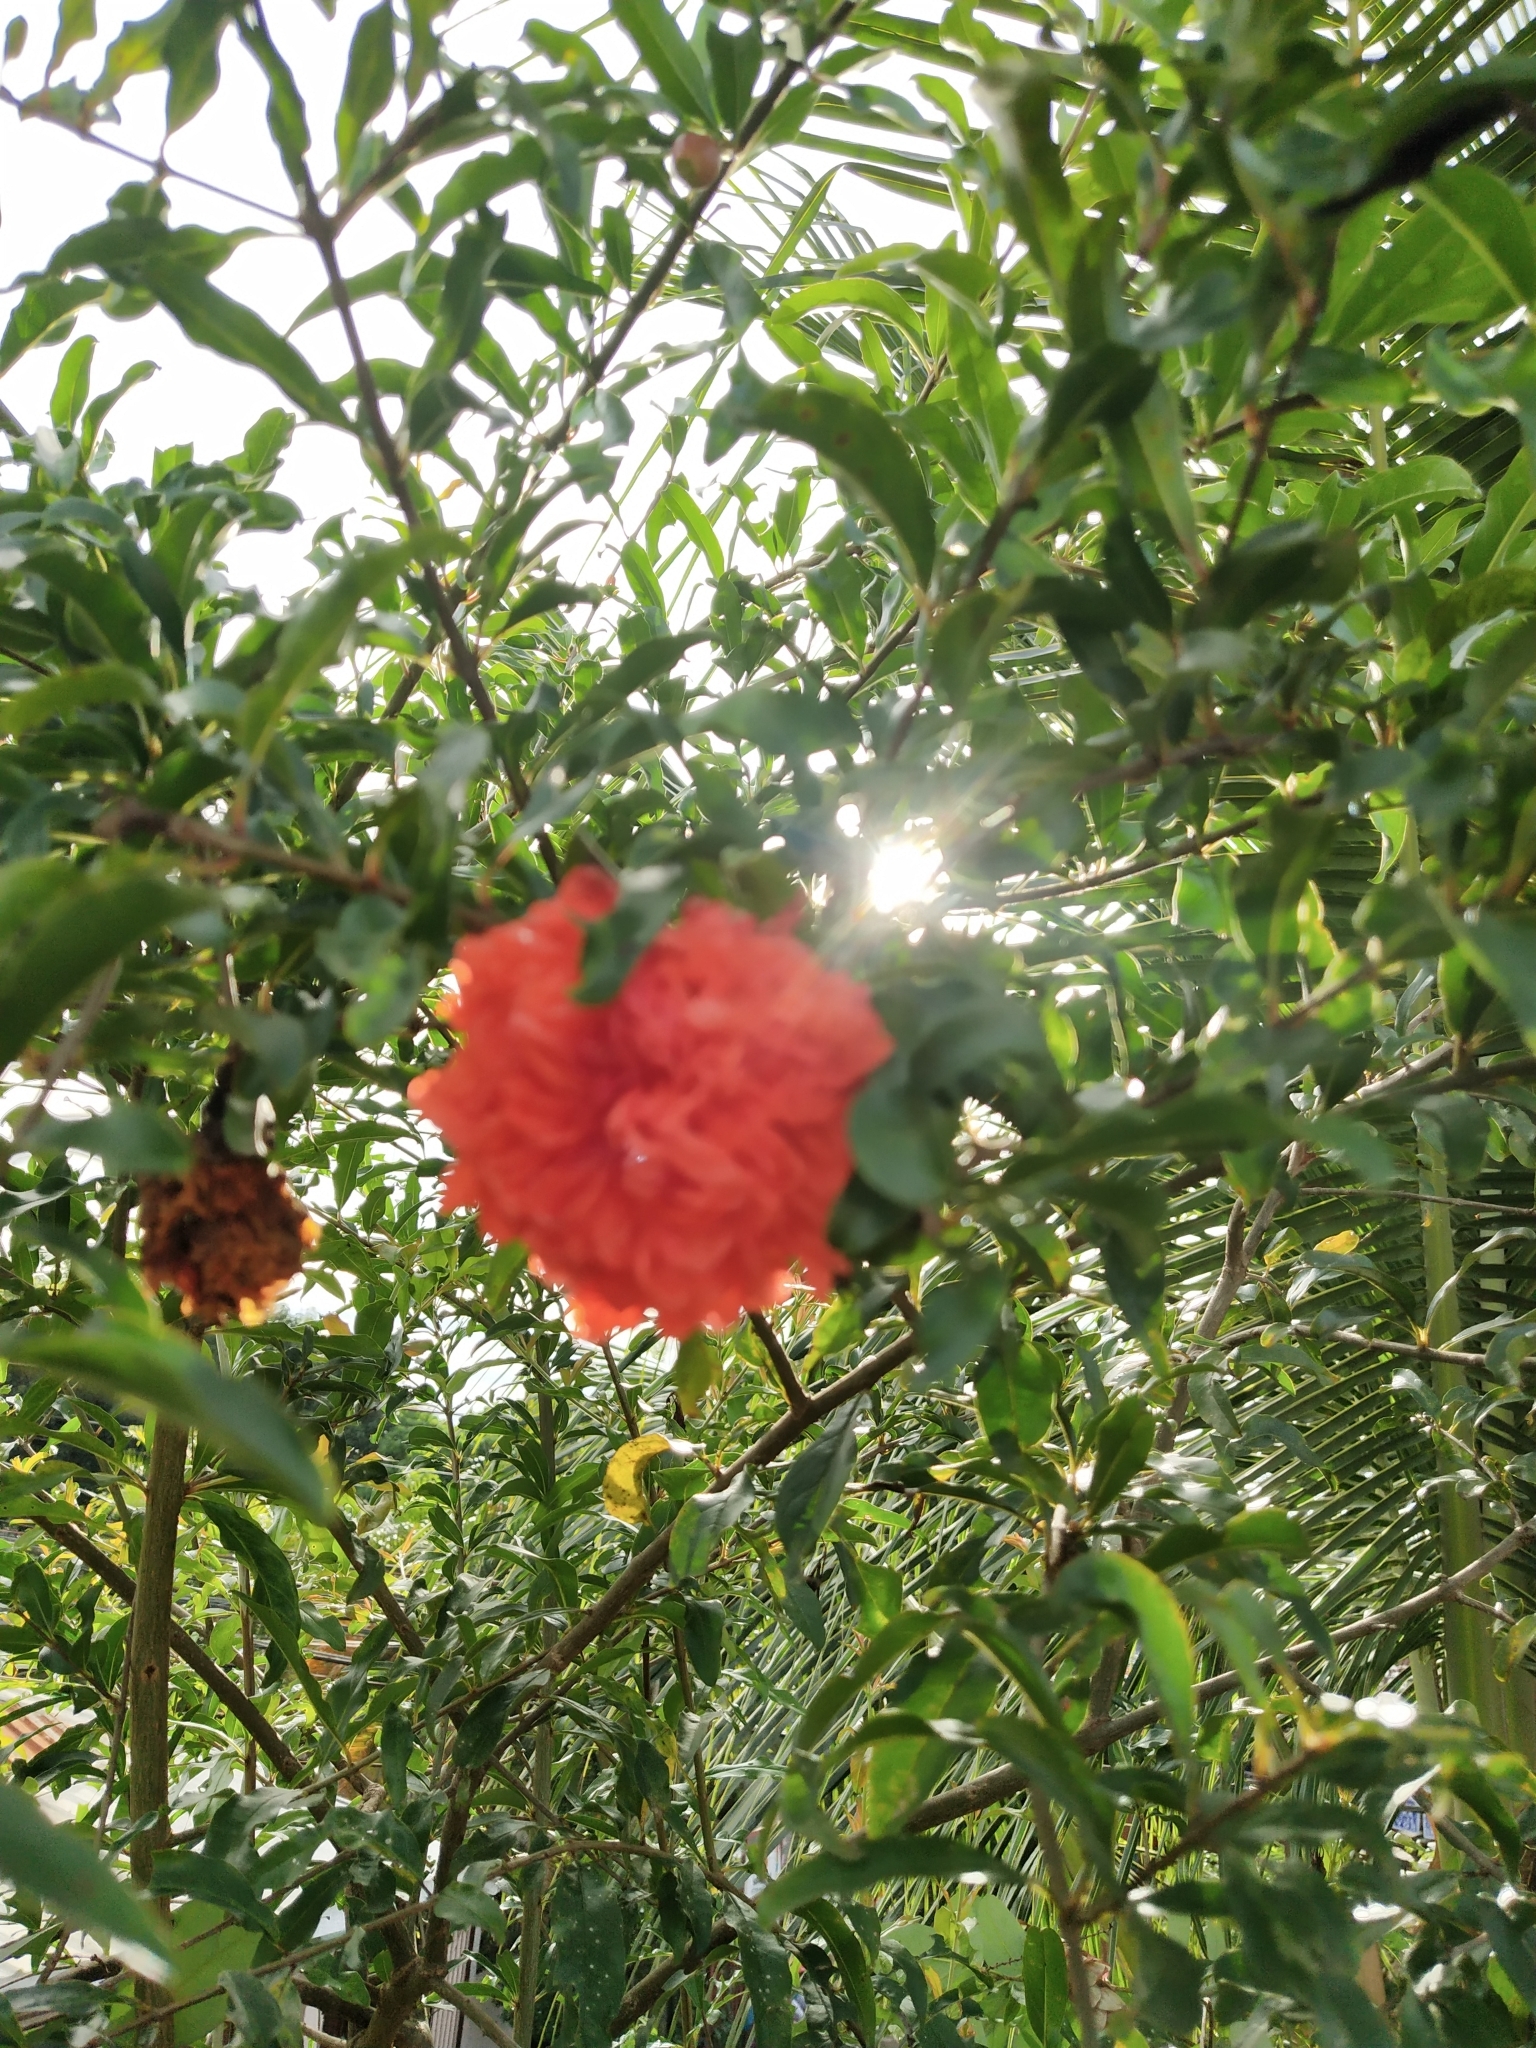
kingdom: Plantae
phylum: Tracheophyta
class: Magnoliopsida
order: Myrtales
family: Lythraceae
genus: Punica
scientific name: Punica granatum
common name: Pomegranate
